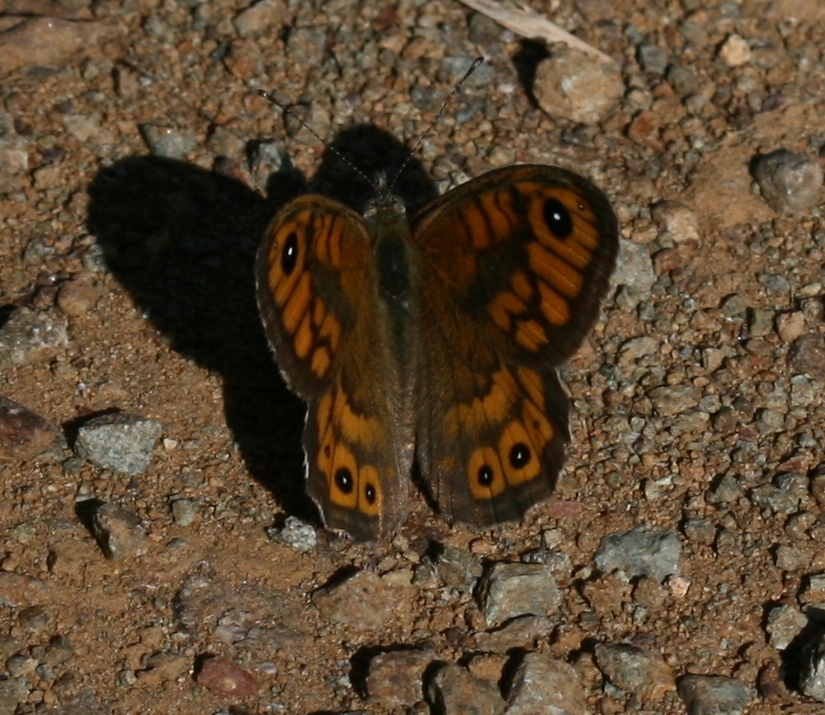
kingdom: Animalia
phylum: Arthropoda
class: Insecta
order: Lepidoptera
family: Nymphalidae
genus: Pararge
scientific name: Pararge Lasiommata megera
